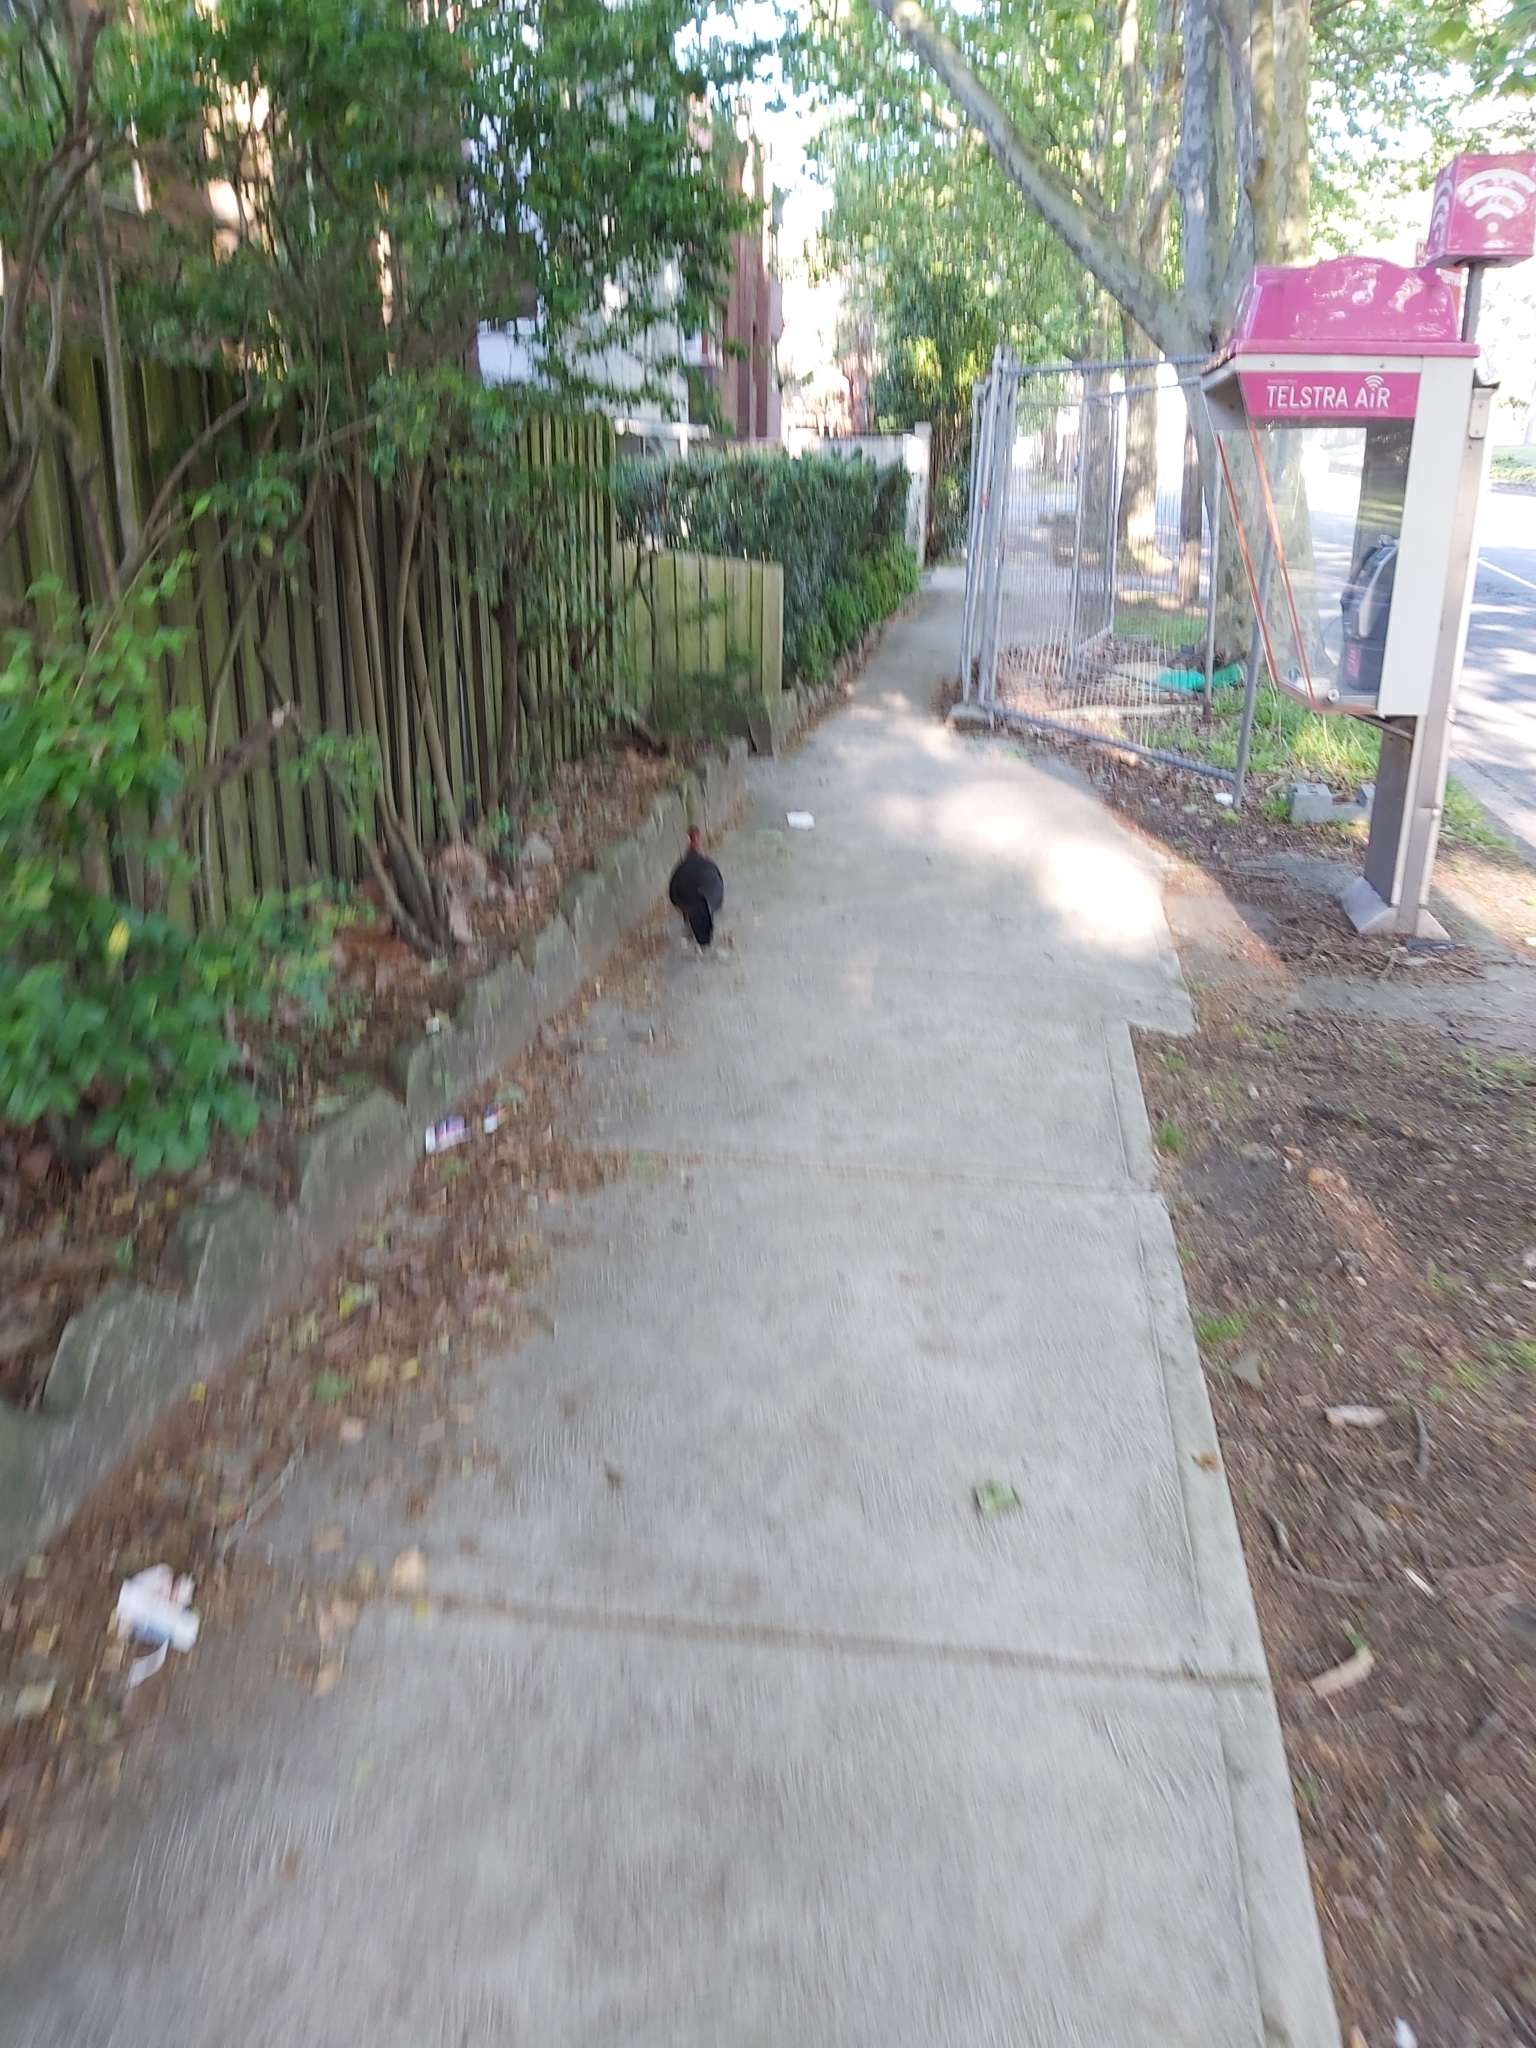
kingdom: Animalia
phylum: Chordata
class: Aves
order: Galliformes
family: Megapodiidae
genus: Alectura
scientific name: Alectura lathami
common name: Australian brushturkey
